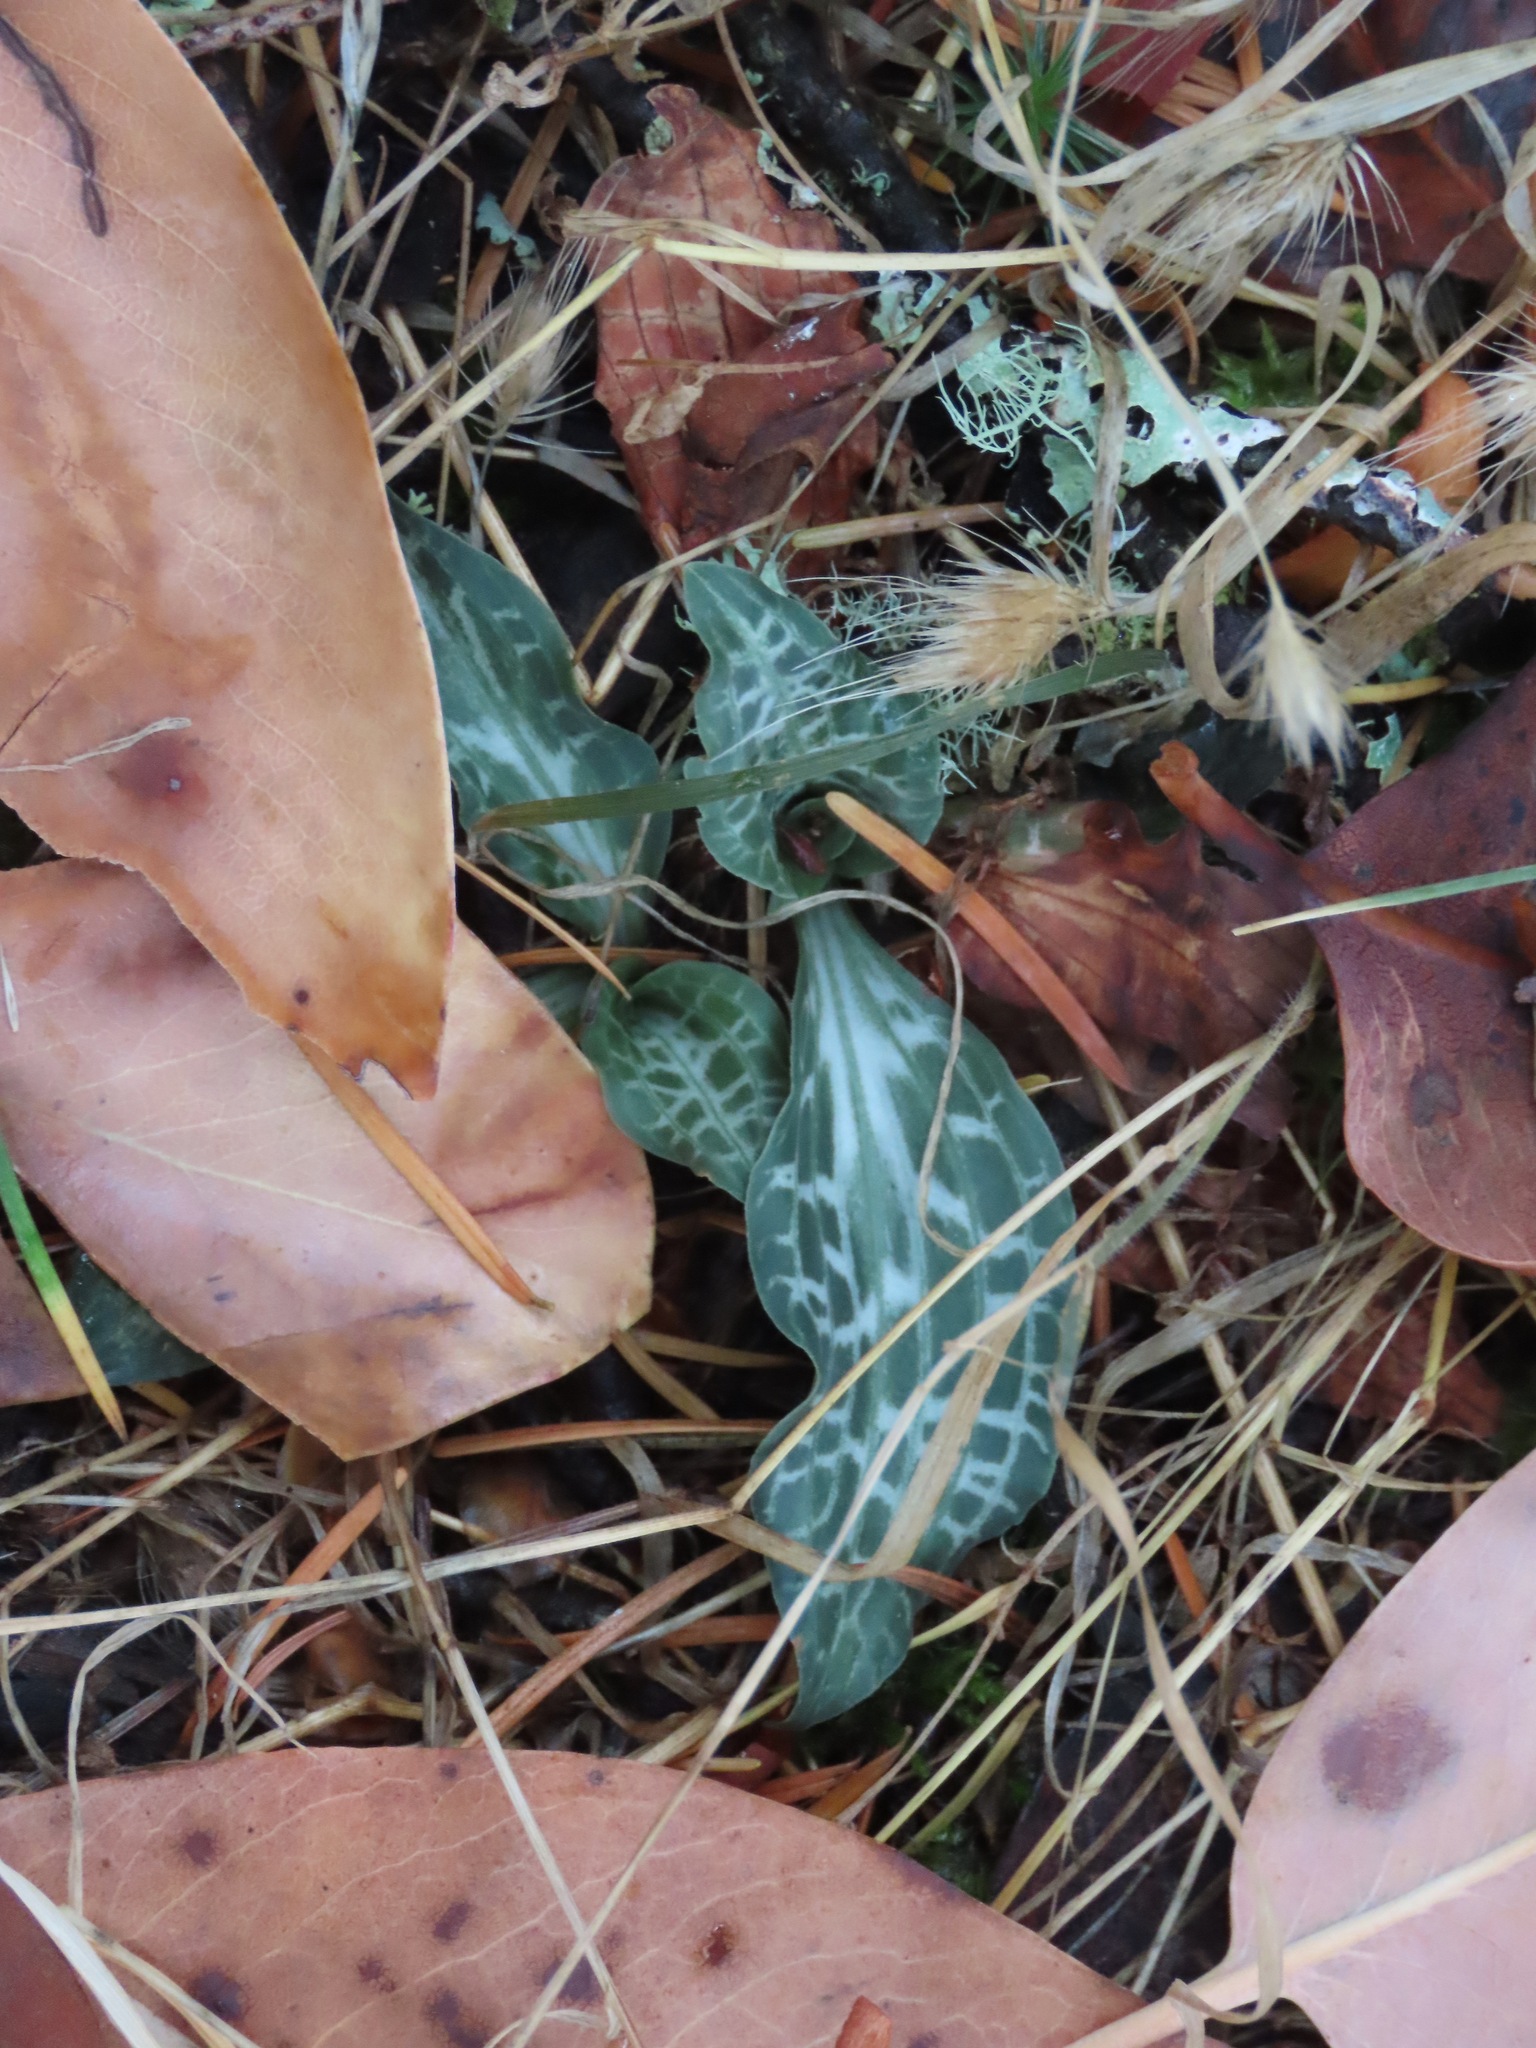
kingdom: Plantae
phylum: Tracheophyta
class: Liliopsida
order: Asparagales
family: Orchidaceae
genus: Goodyera
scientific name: Goodyera oblongifolia
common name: Giant rattlesnake-plantain
